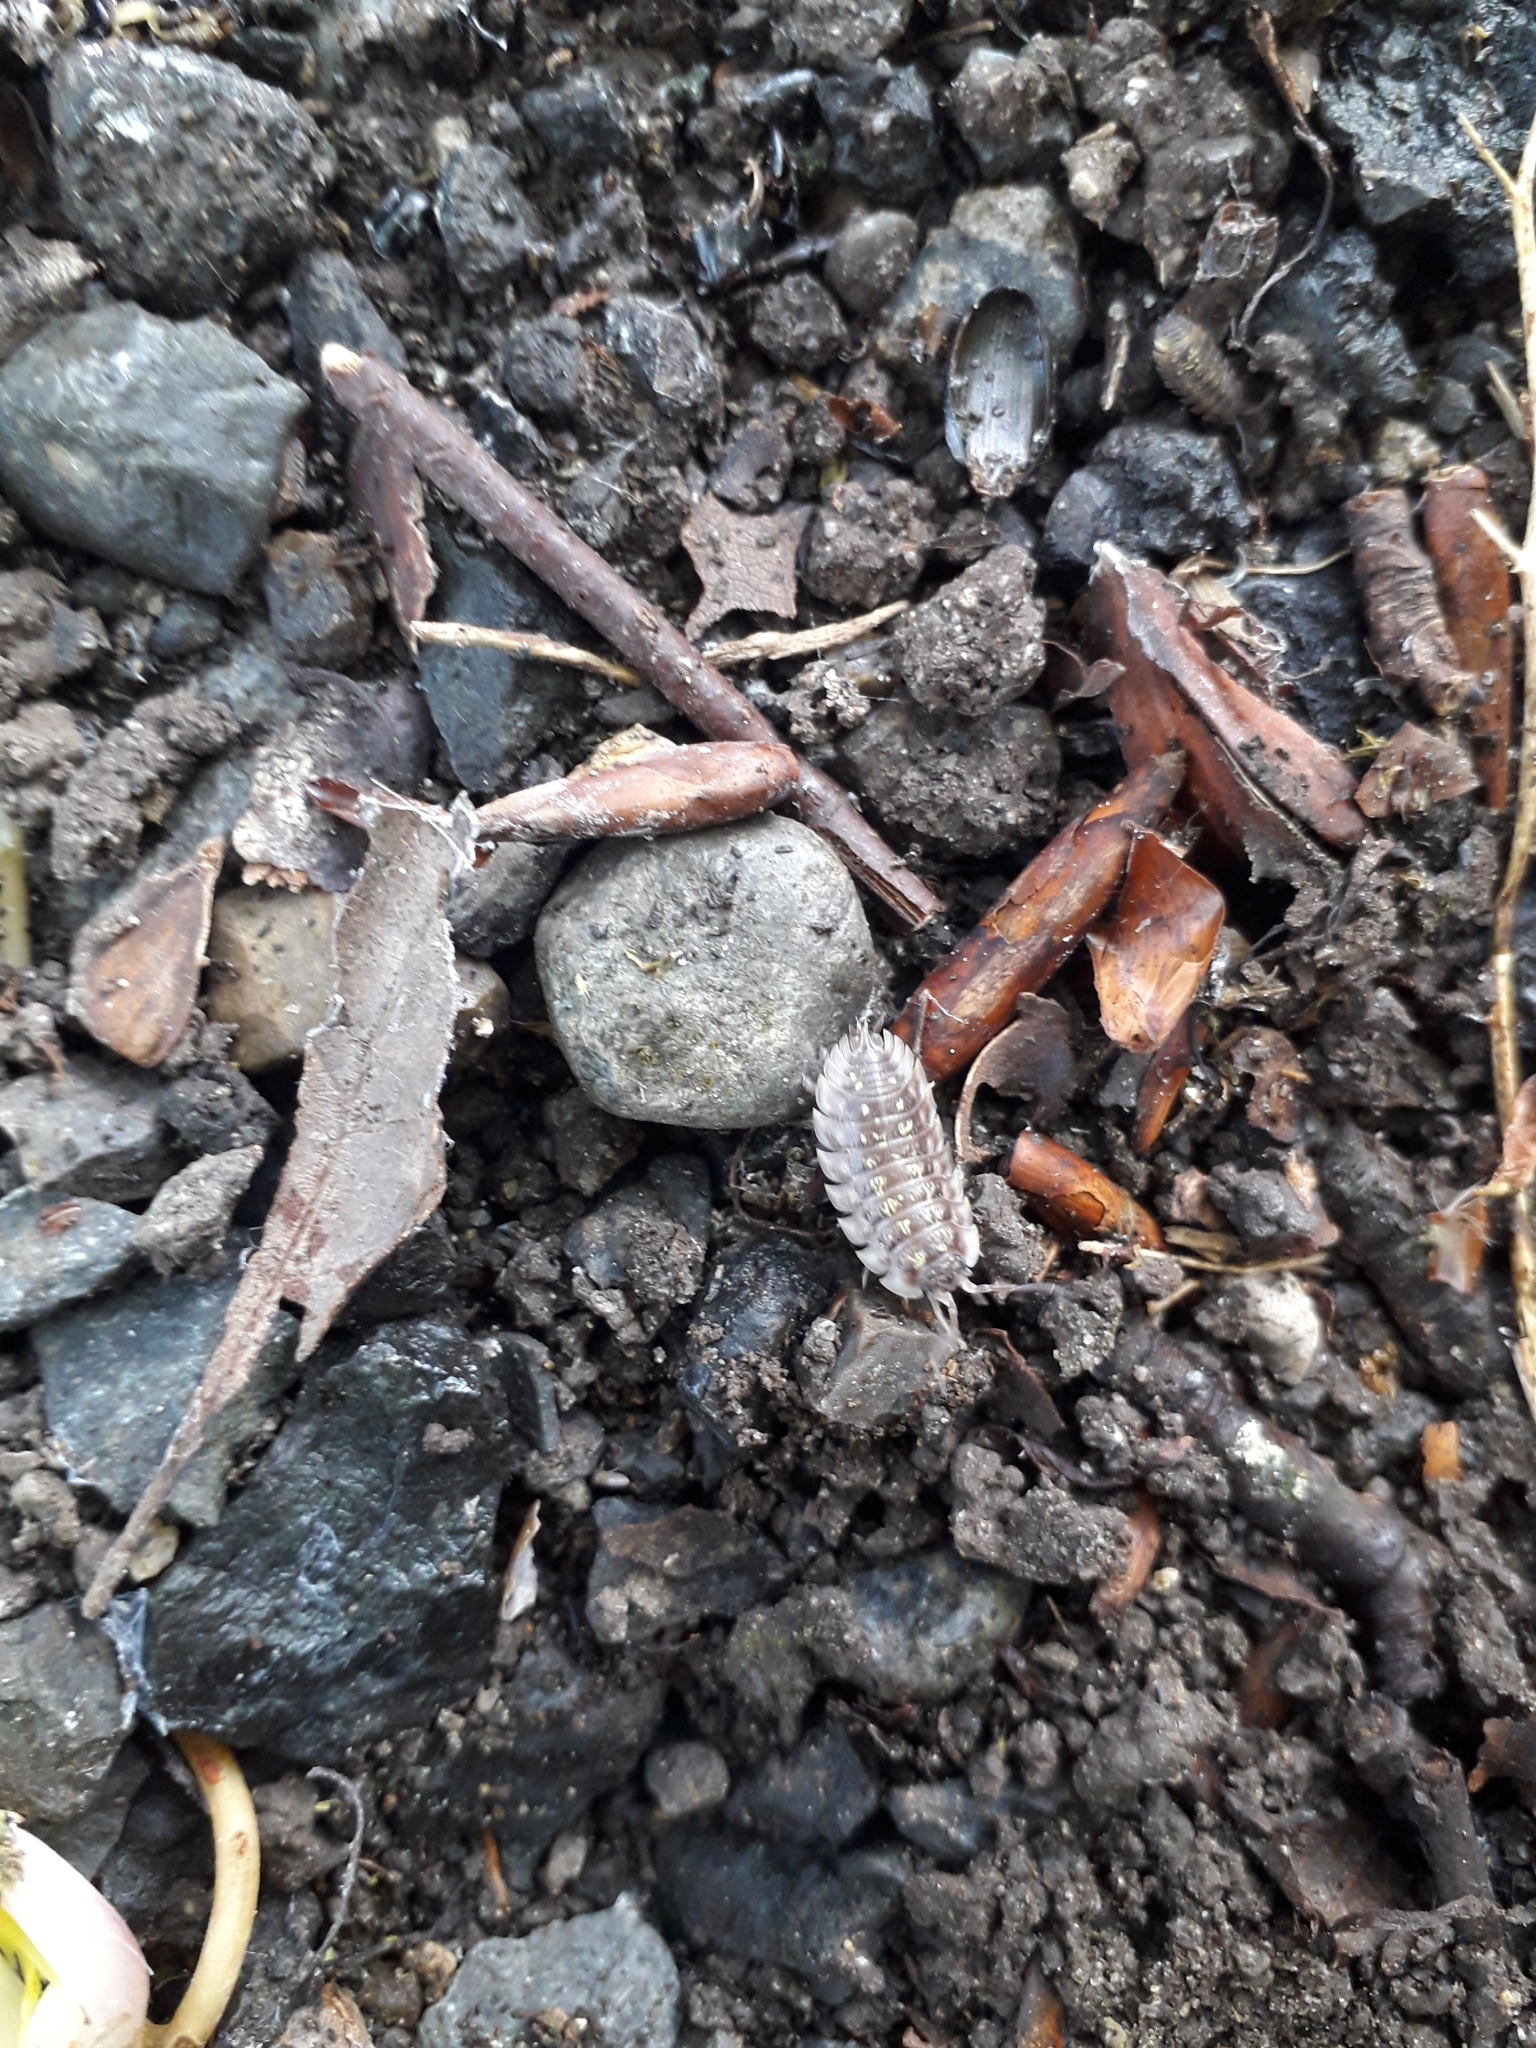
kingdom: Animalia
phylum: Arthropoda
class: Malacostraca
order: Isopoda
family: Oniscidae
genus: Oniscus
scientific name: Oniscus asellus
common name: Common shiny woodlouse
